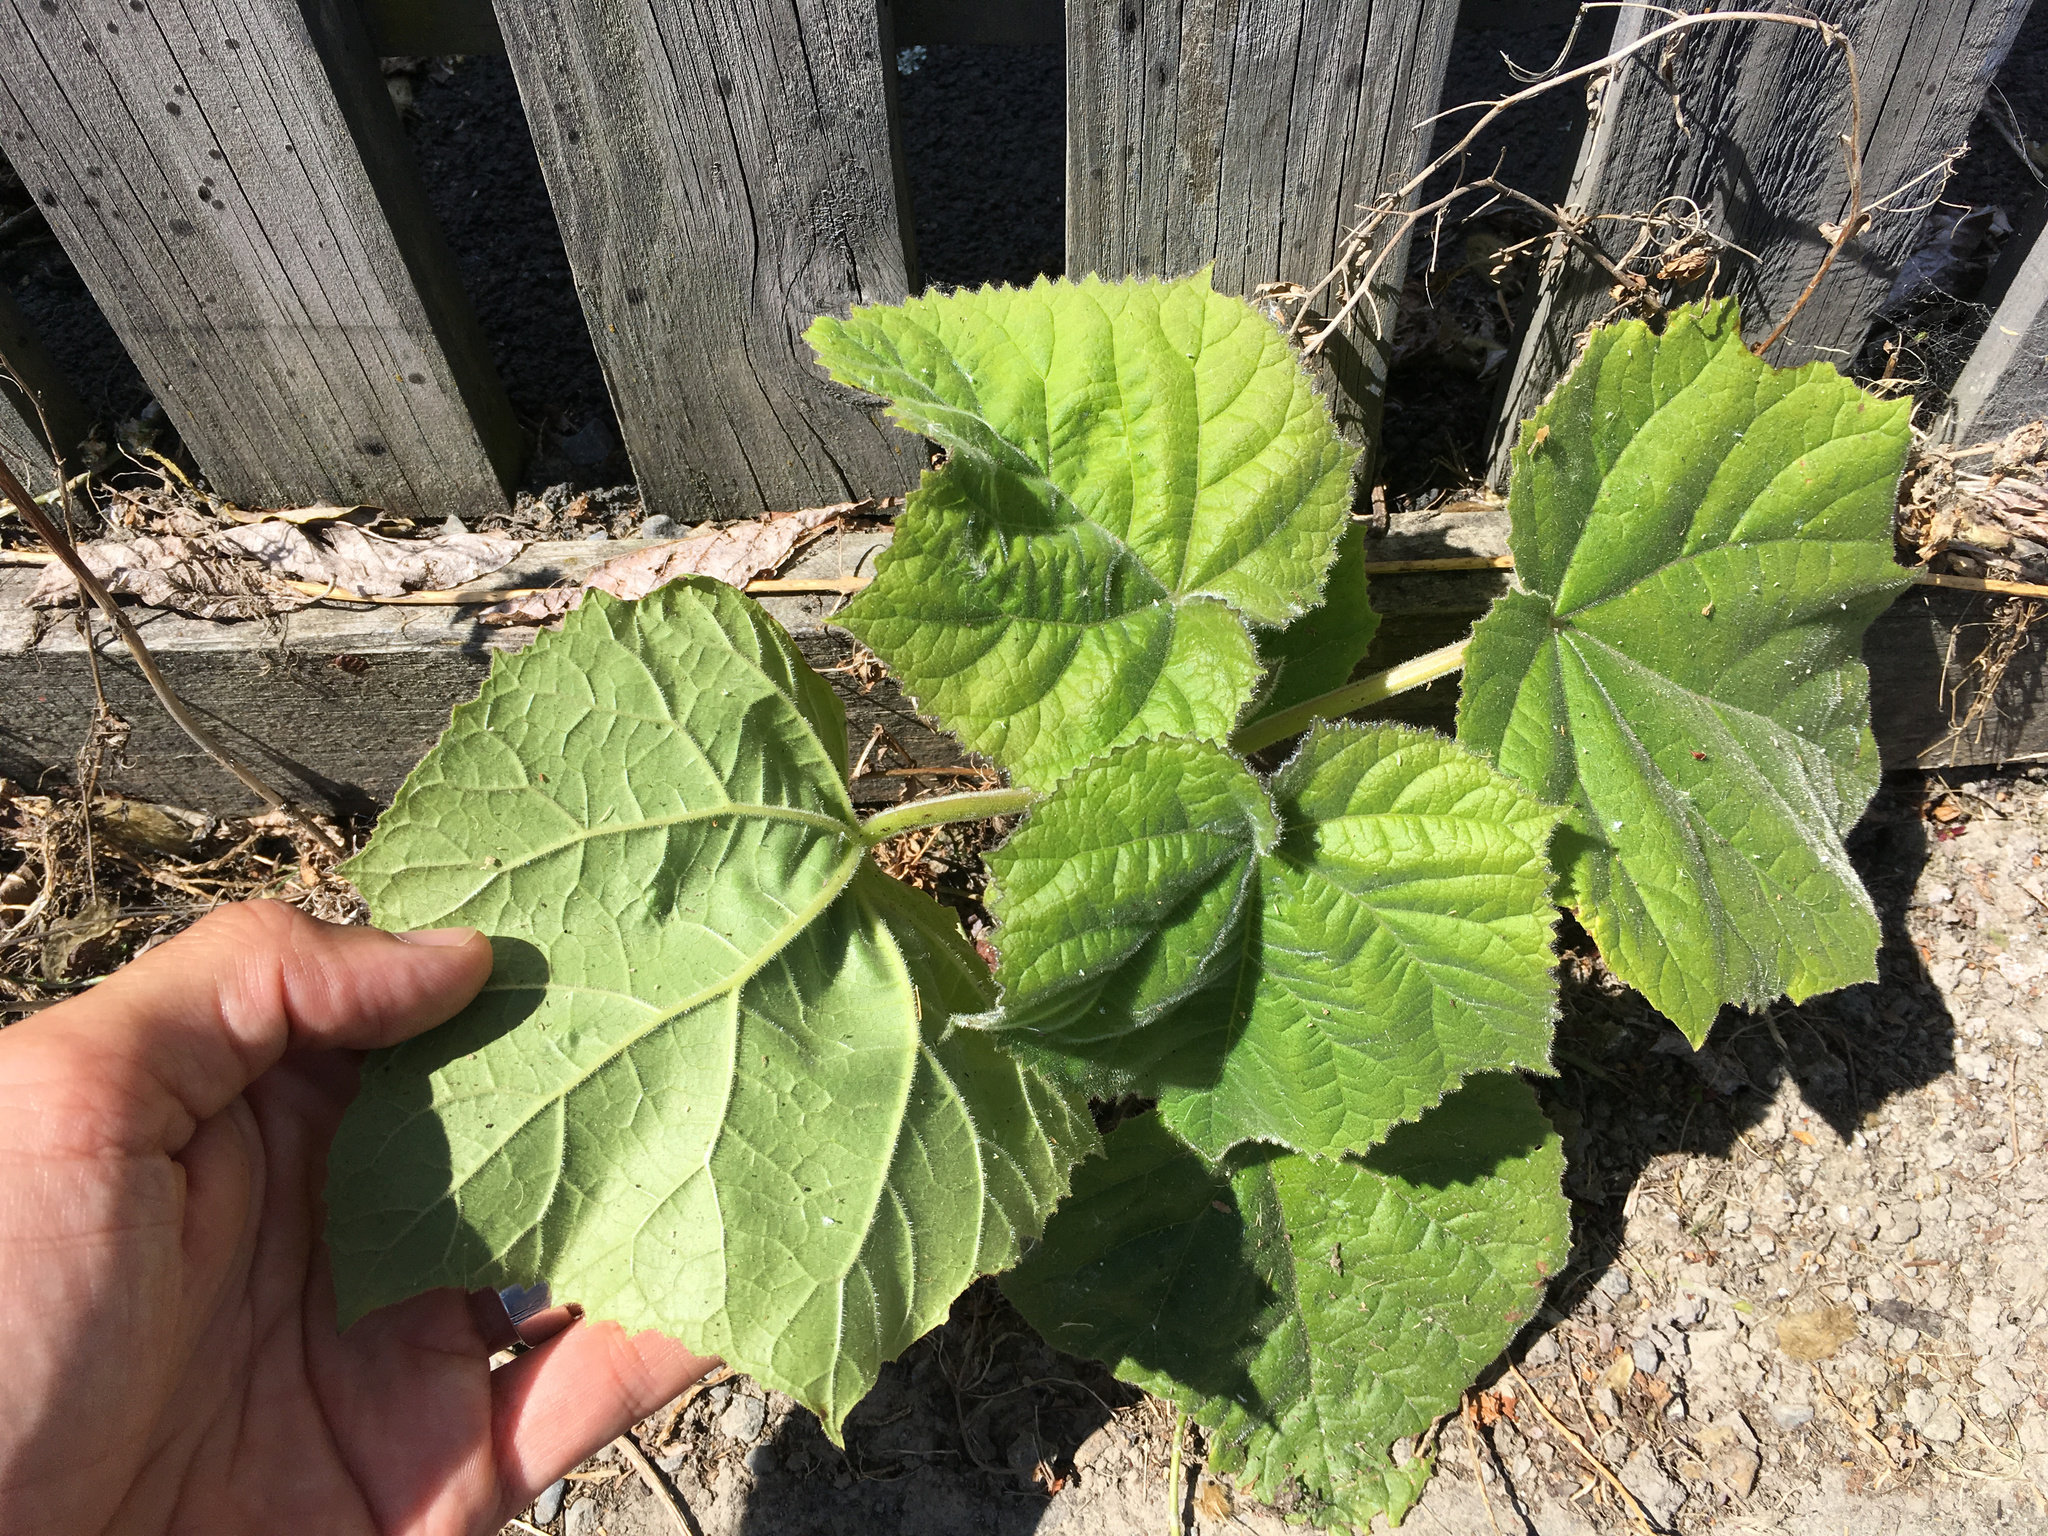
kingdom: Plantae
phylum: Tracheophyta
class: Magnoliopsida
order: Malvales
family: Malvaceae
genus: Entelea
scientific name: Entelea arborescens
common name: New zealand-mulberry
